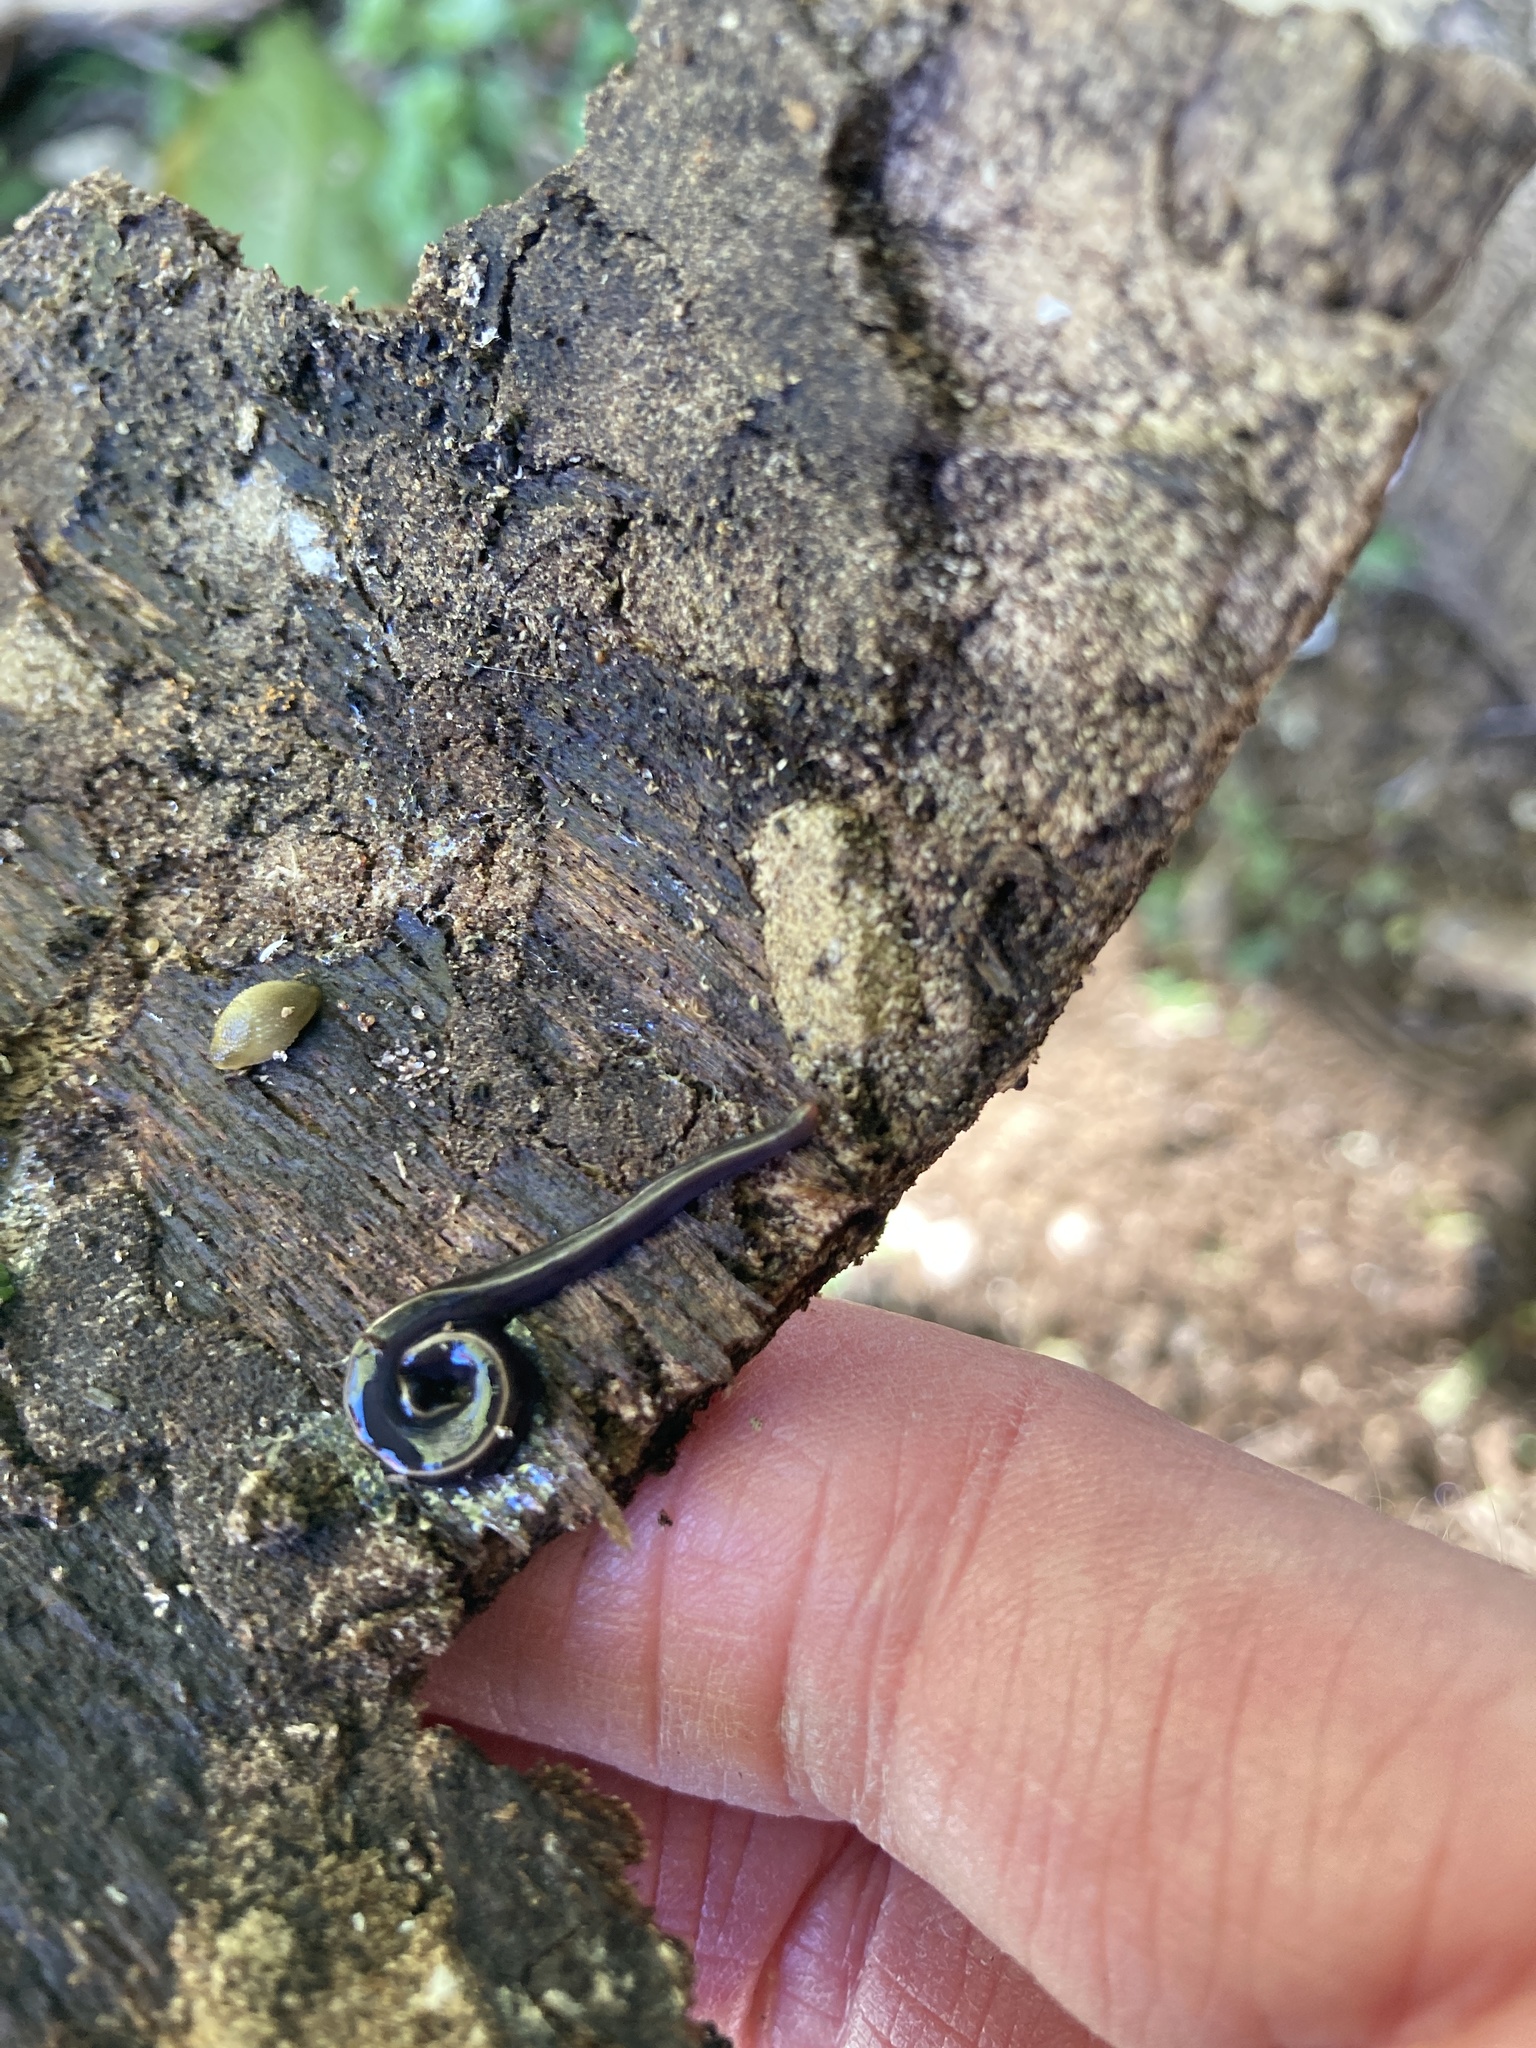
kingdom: Animalia
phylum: Platyhelminthes
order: Tricladida
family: Geoplanidae
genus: Caenoplana
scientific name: Caenoplana coerulea
